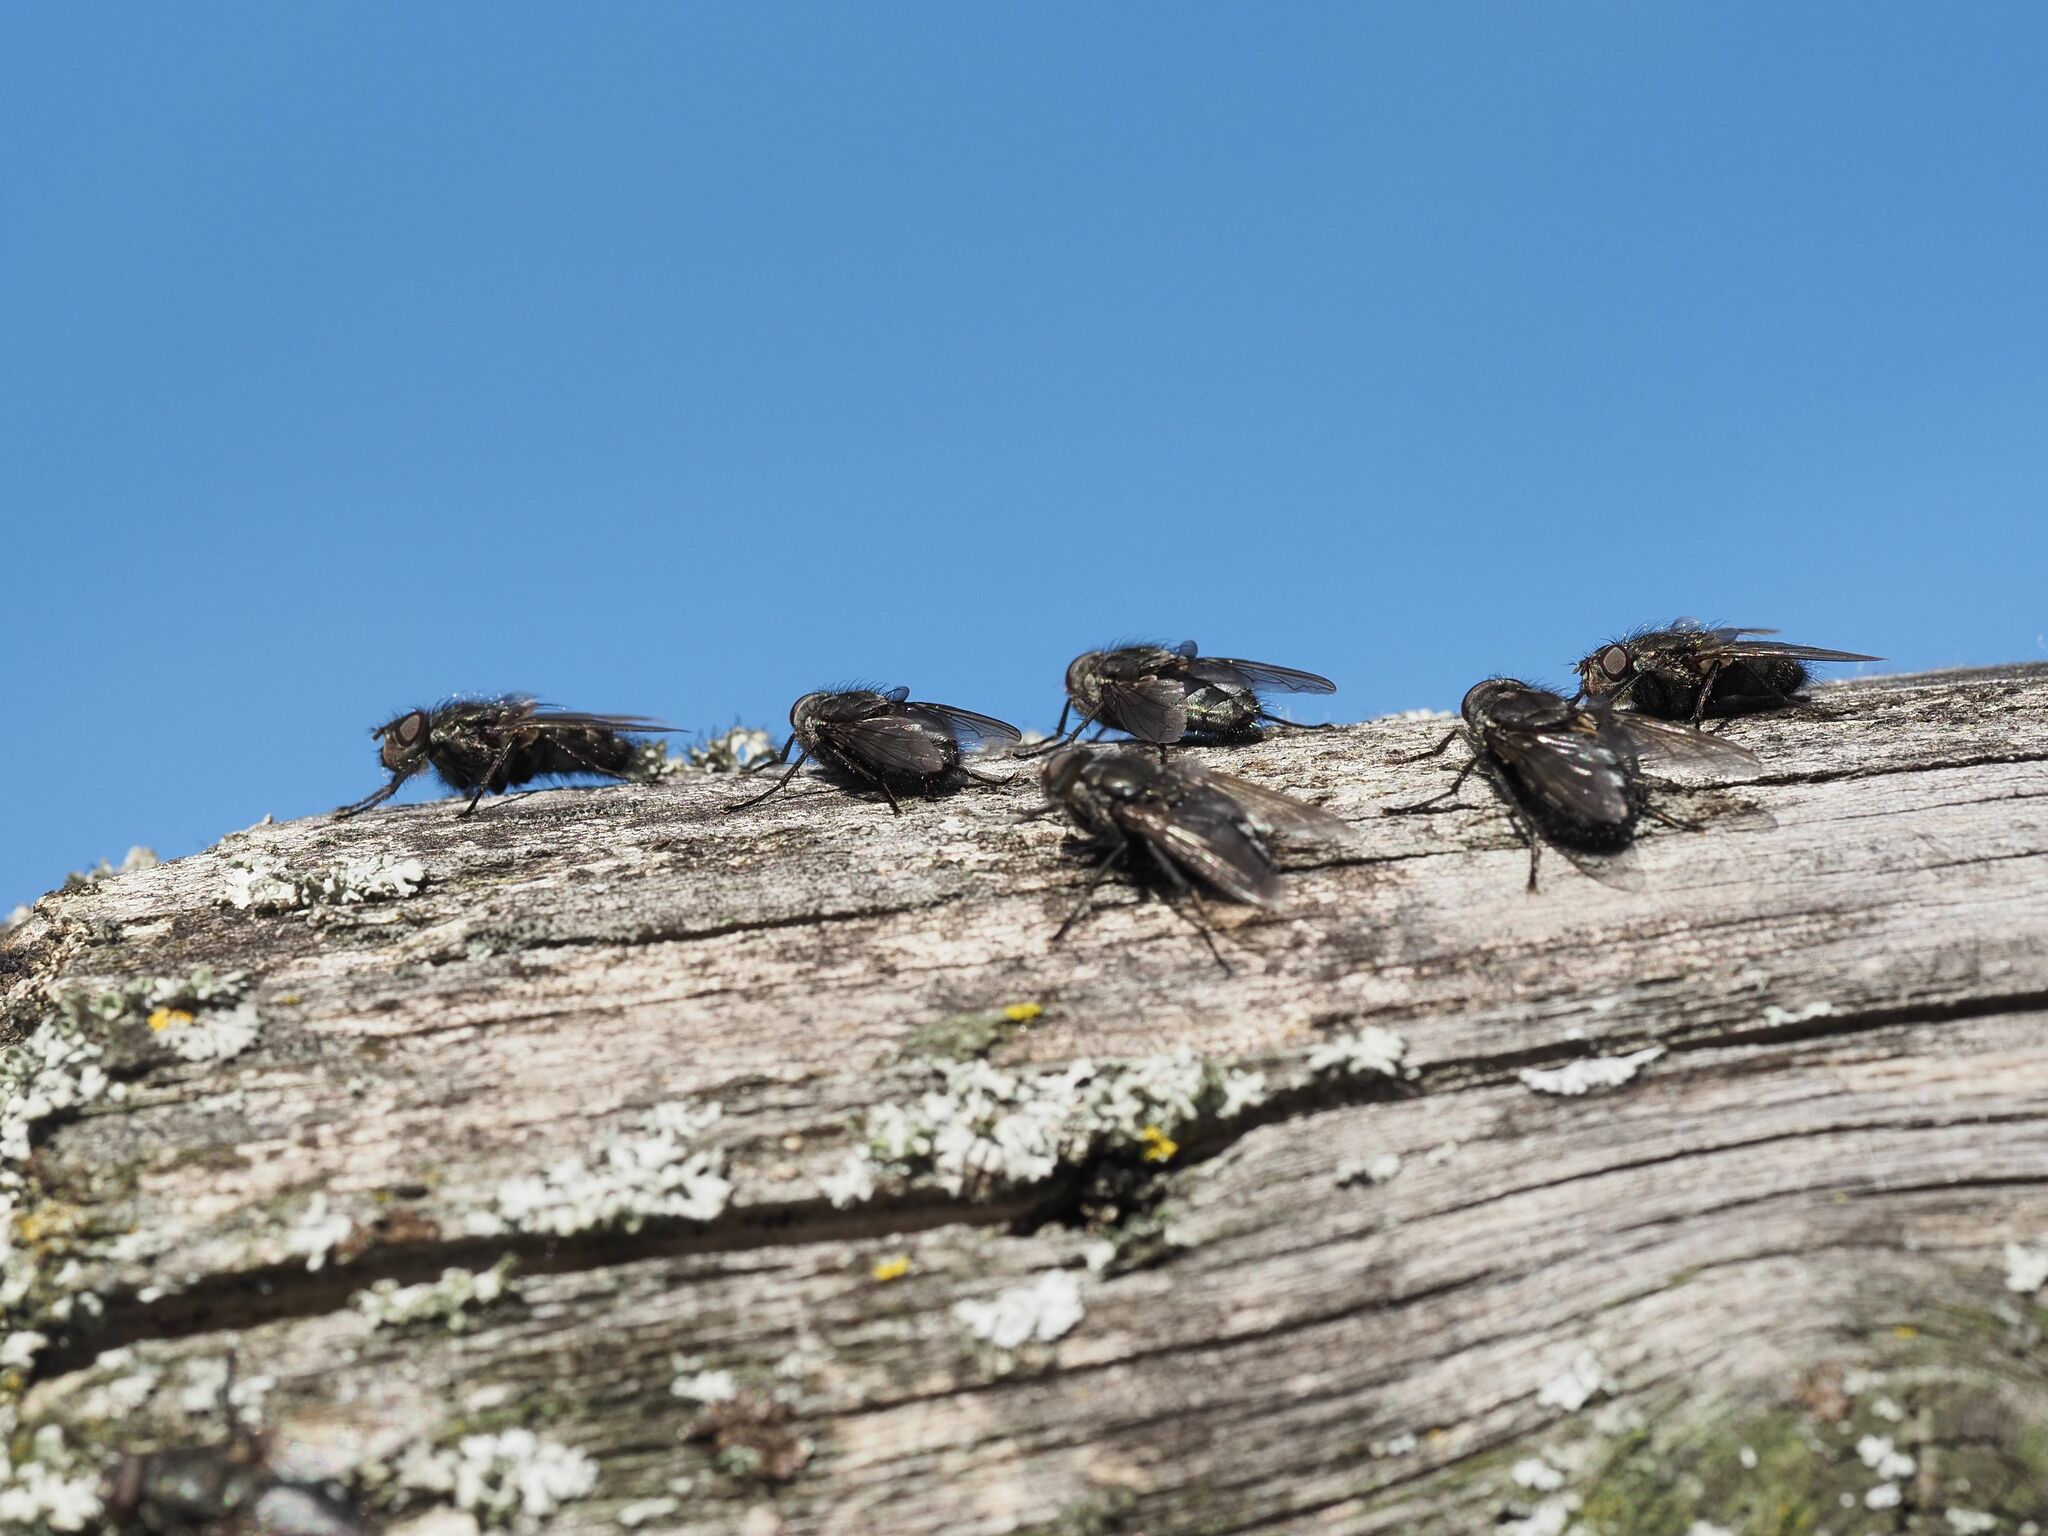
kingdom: Animalia
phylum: Arthropoda
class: Insecta
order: Diptera
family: Polleniidae
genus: Pollenia
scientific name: Pollenia vagabunda
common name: Vagabund cluster fly
